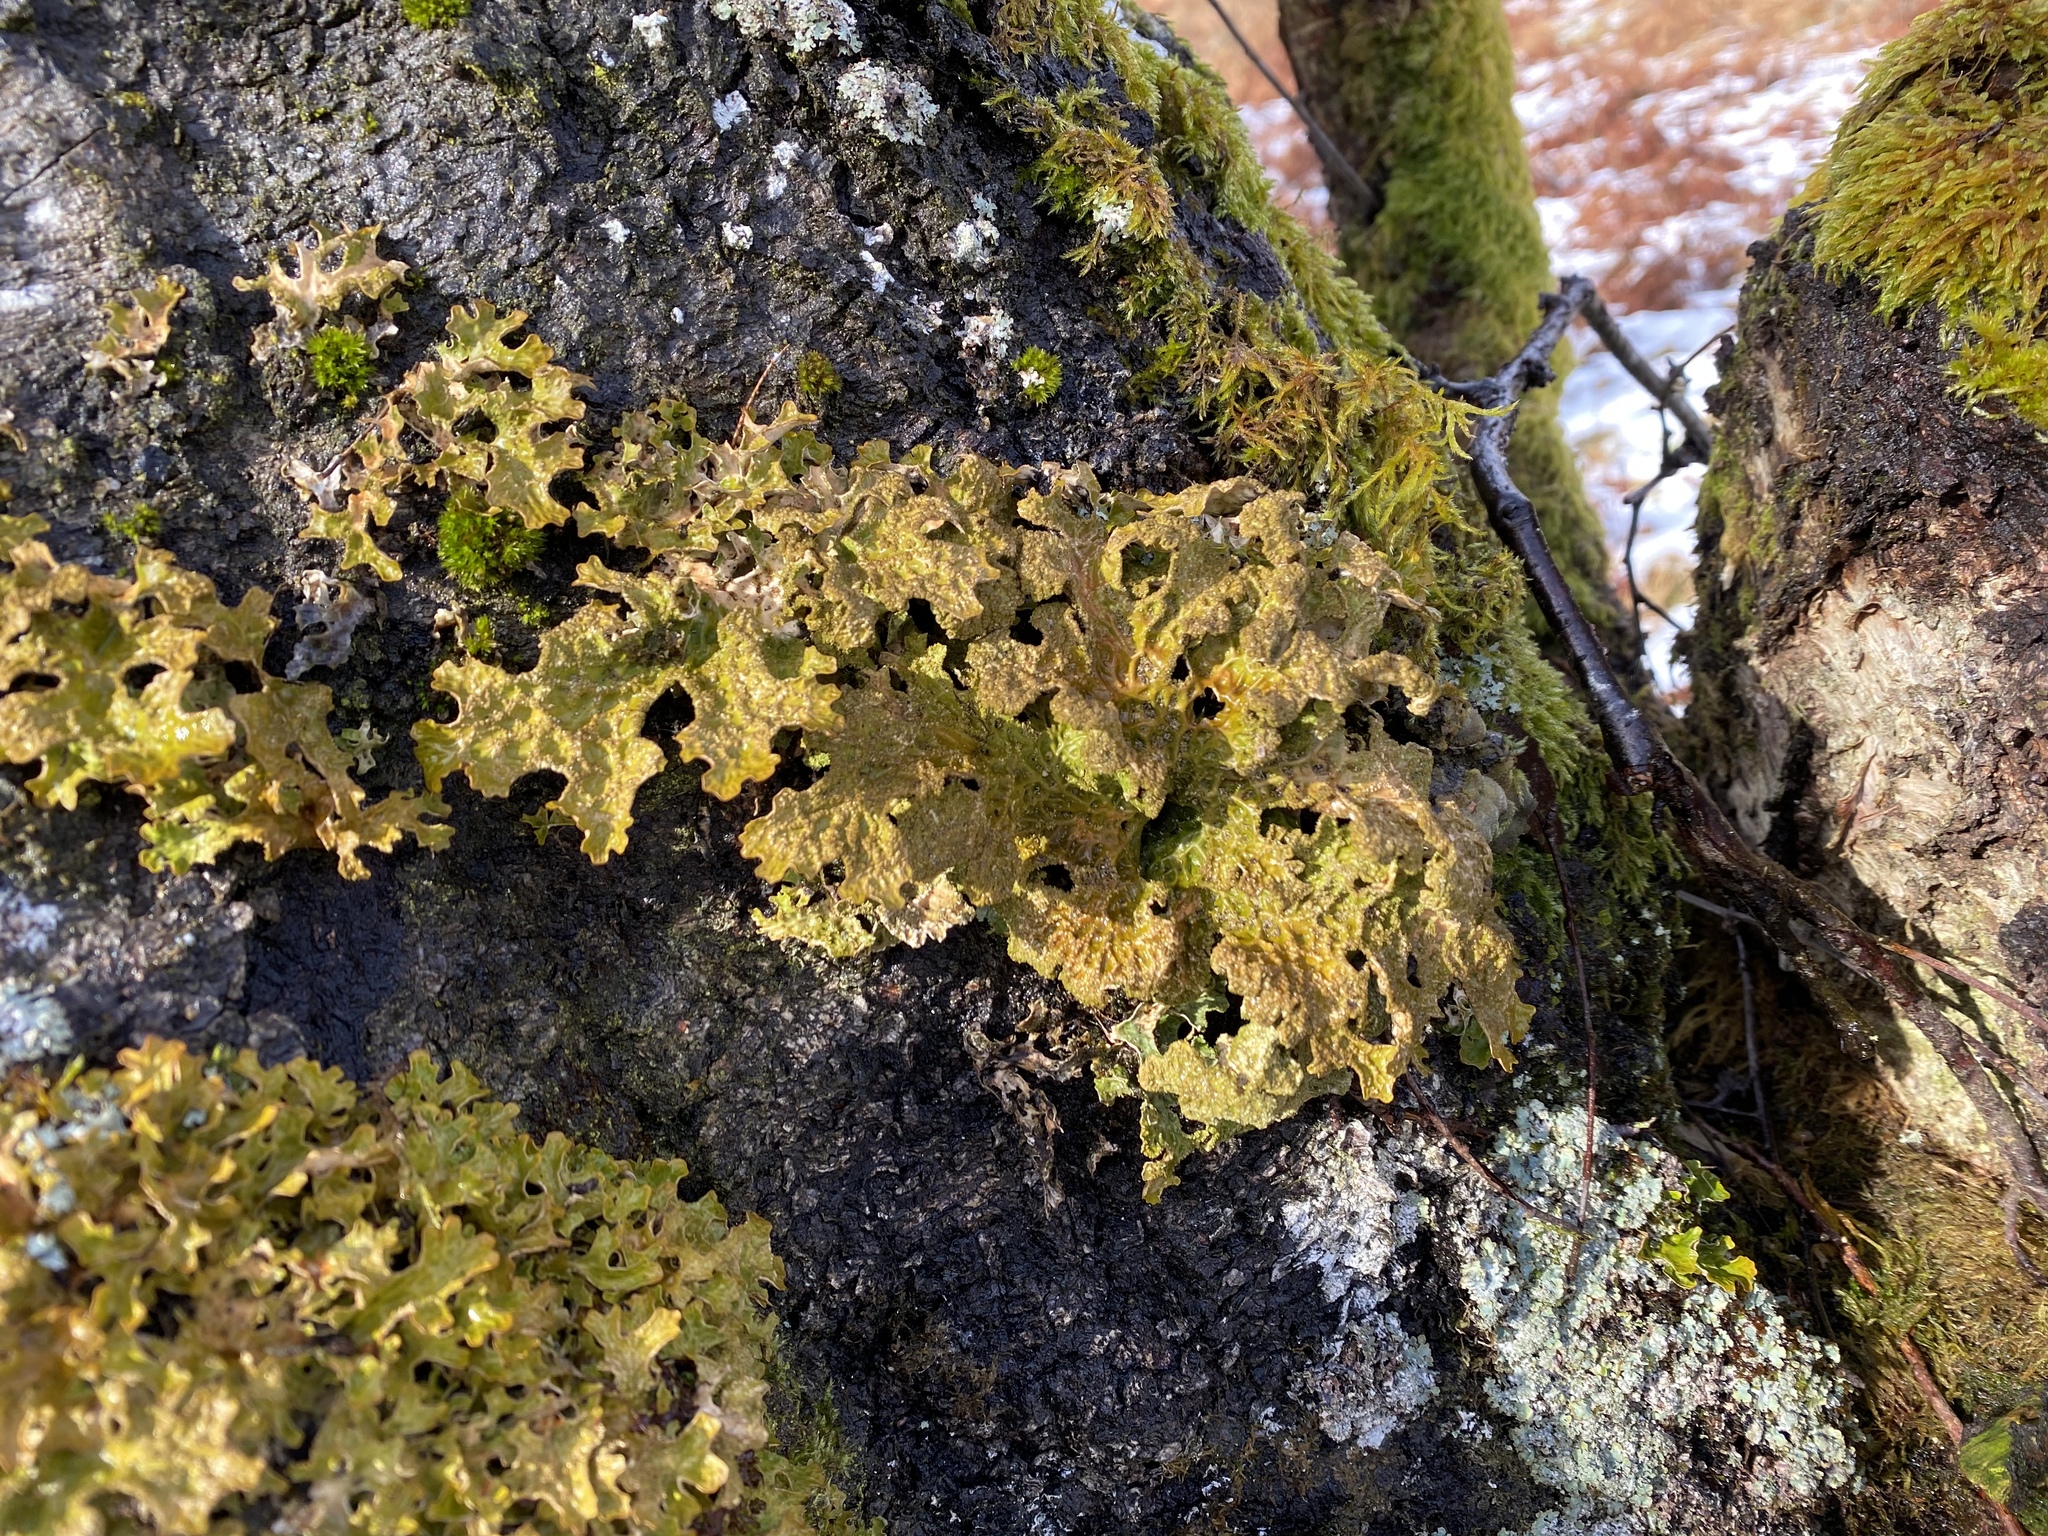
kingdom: Fungi
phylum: Ascomycota
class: Lecanoromycetes
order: Peltigerales
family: Lobariaceae
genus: Lobaria
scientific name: Lobaria pulmonaria
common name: Lungwort
